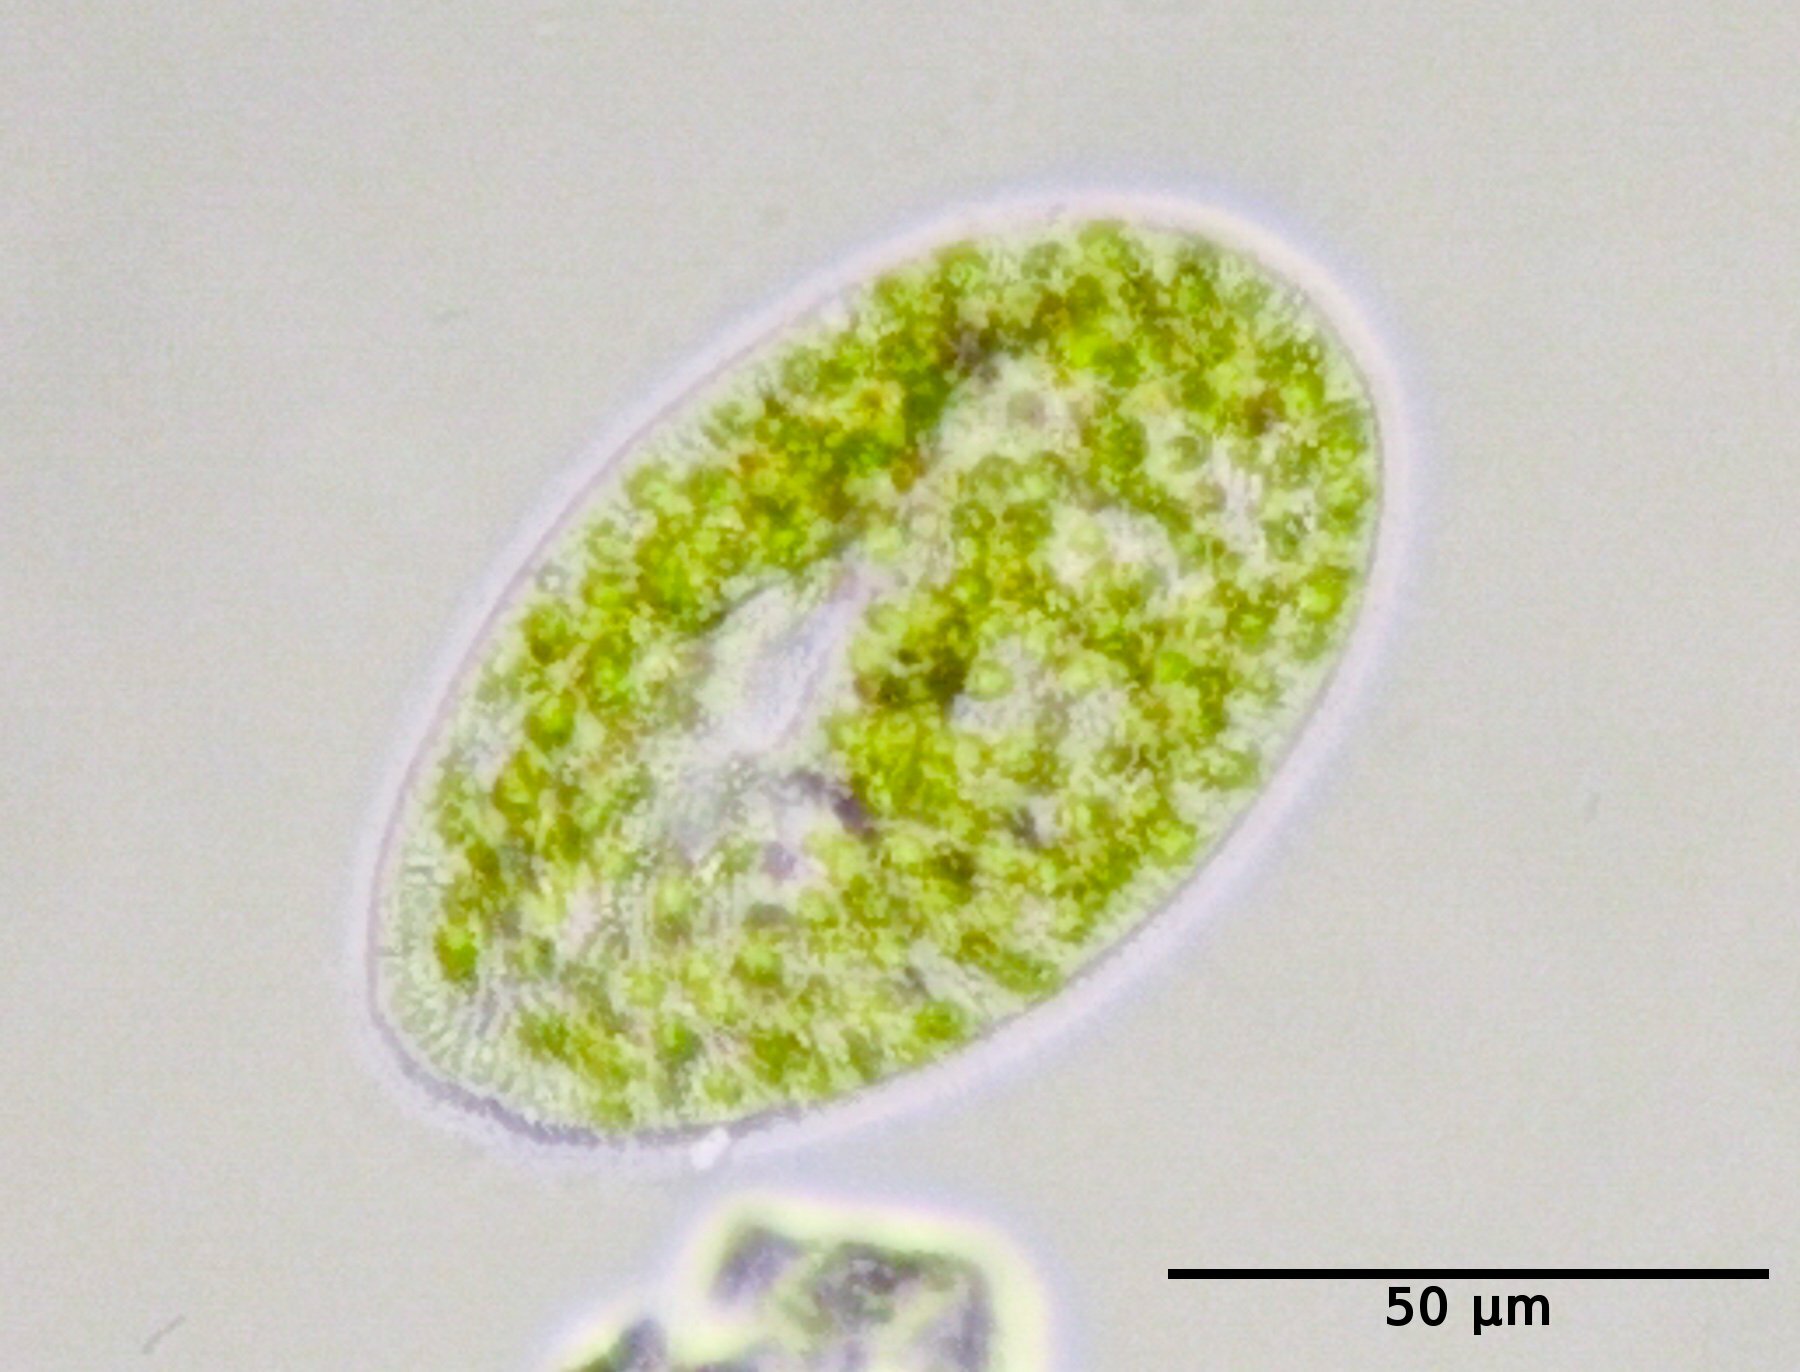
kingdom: Chromista
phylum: Ciliophora
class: Oligohymenophorea
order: Peniculida
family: Parameciidae
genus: Paramecium
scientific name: Paramecium
